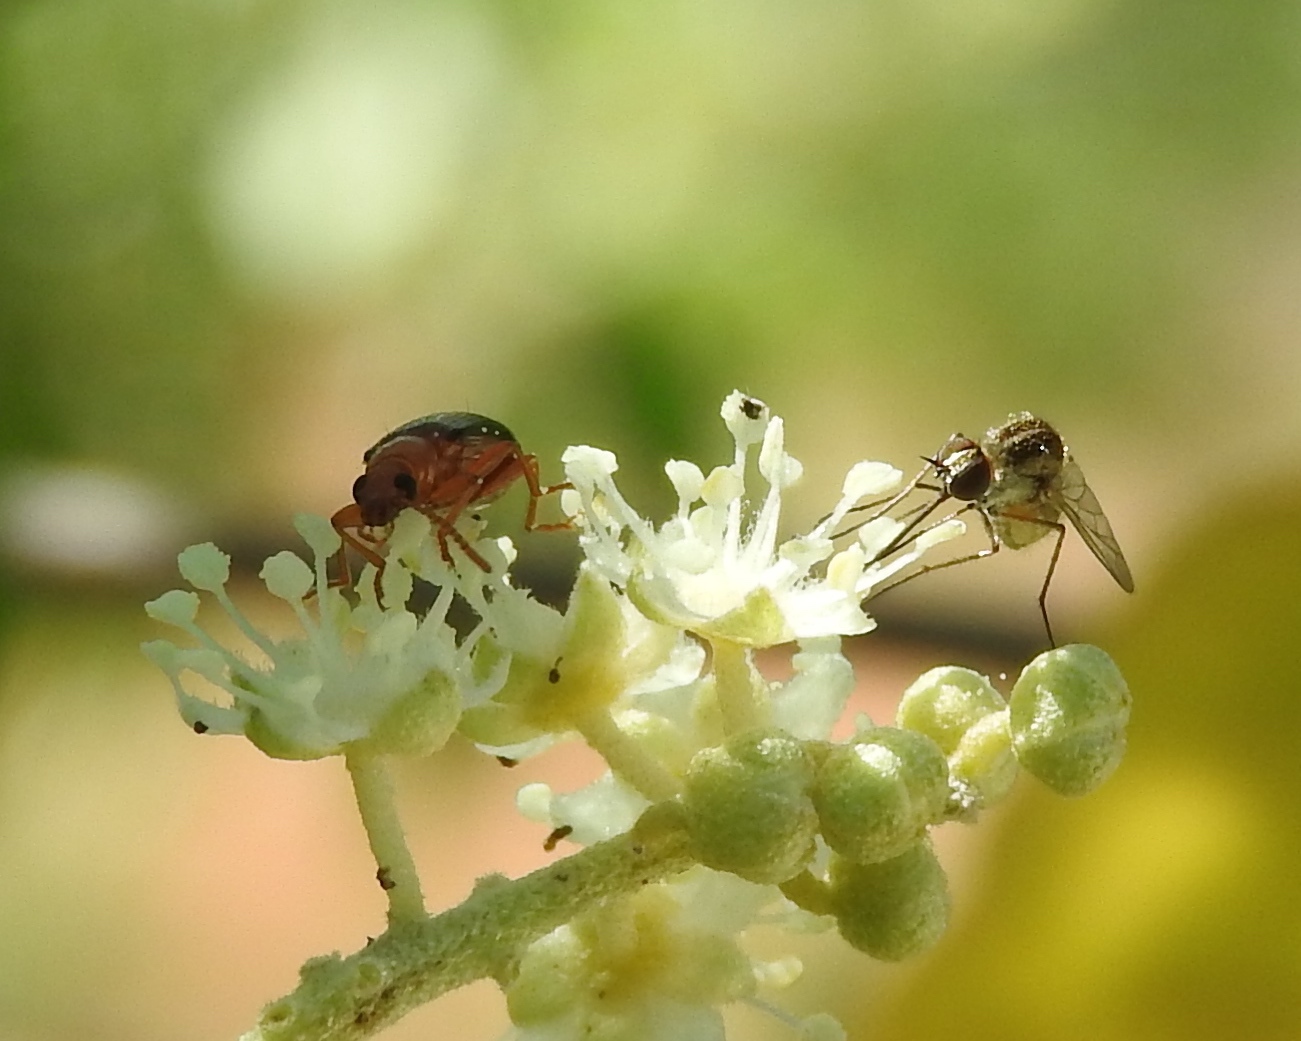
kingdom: Animalia
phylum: Arthropoda
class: Insecta
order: Coleoptera
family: Tenebrionidae
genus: Statira
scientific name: Statira
